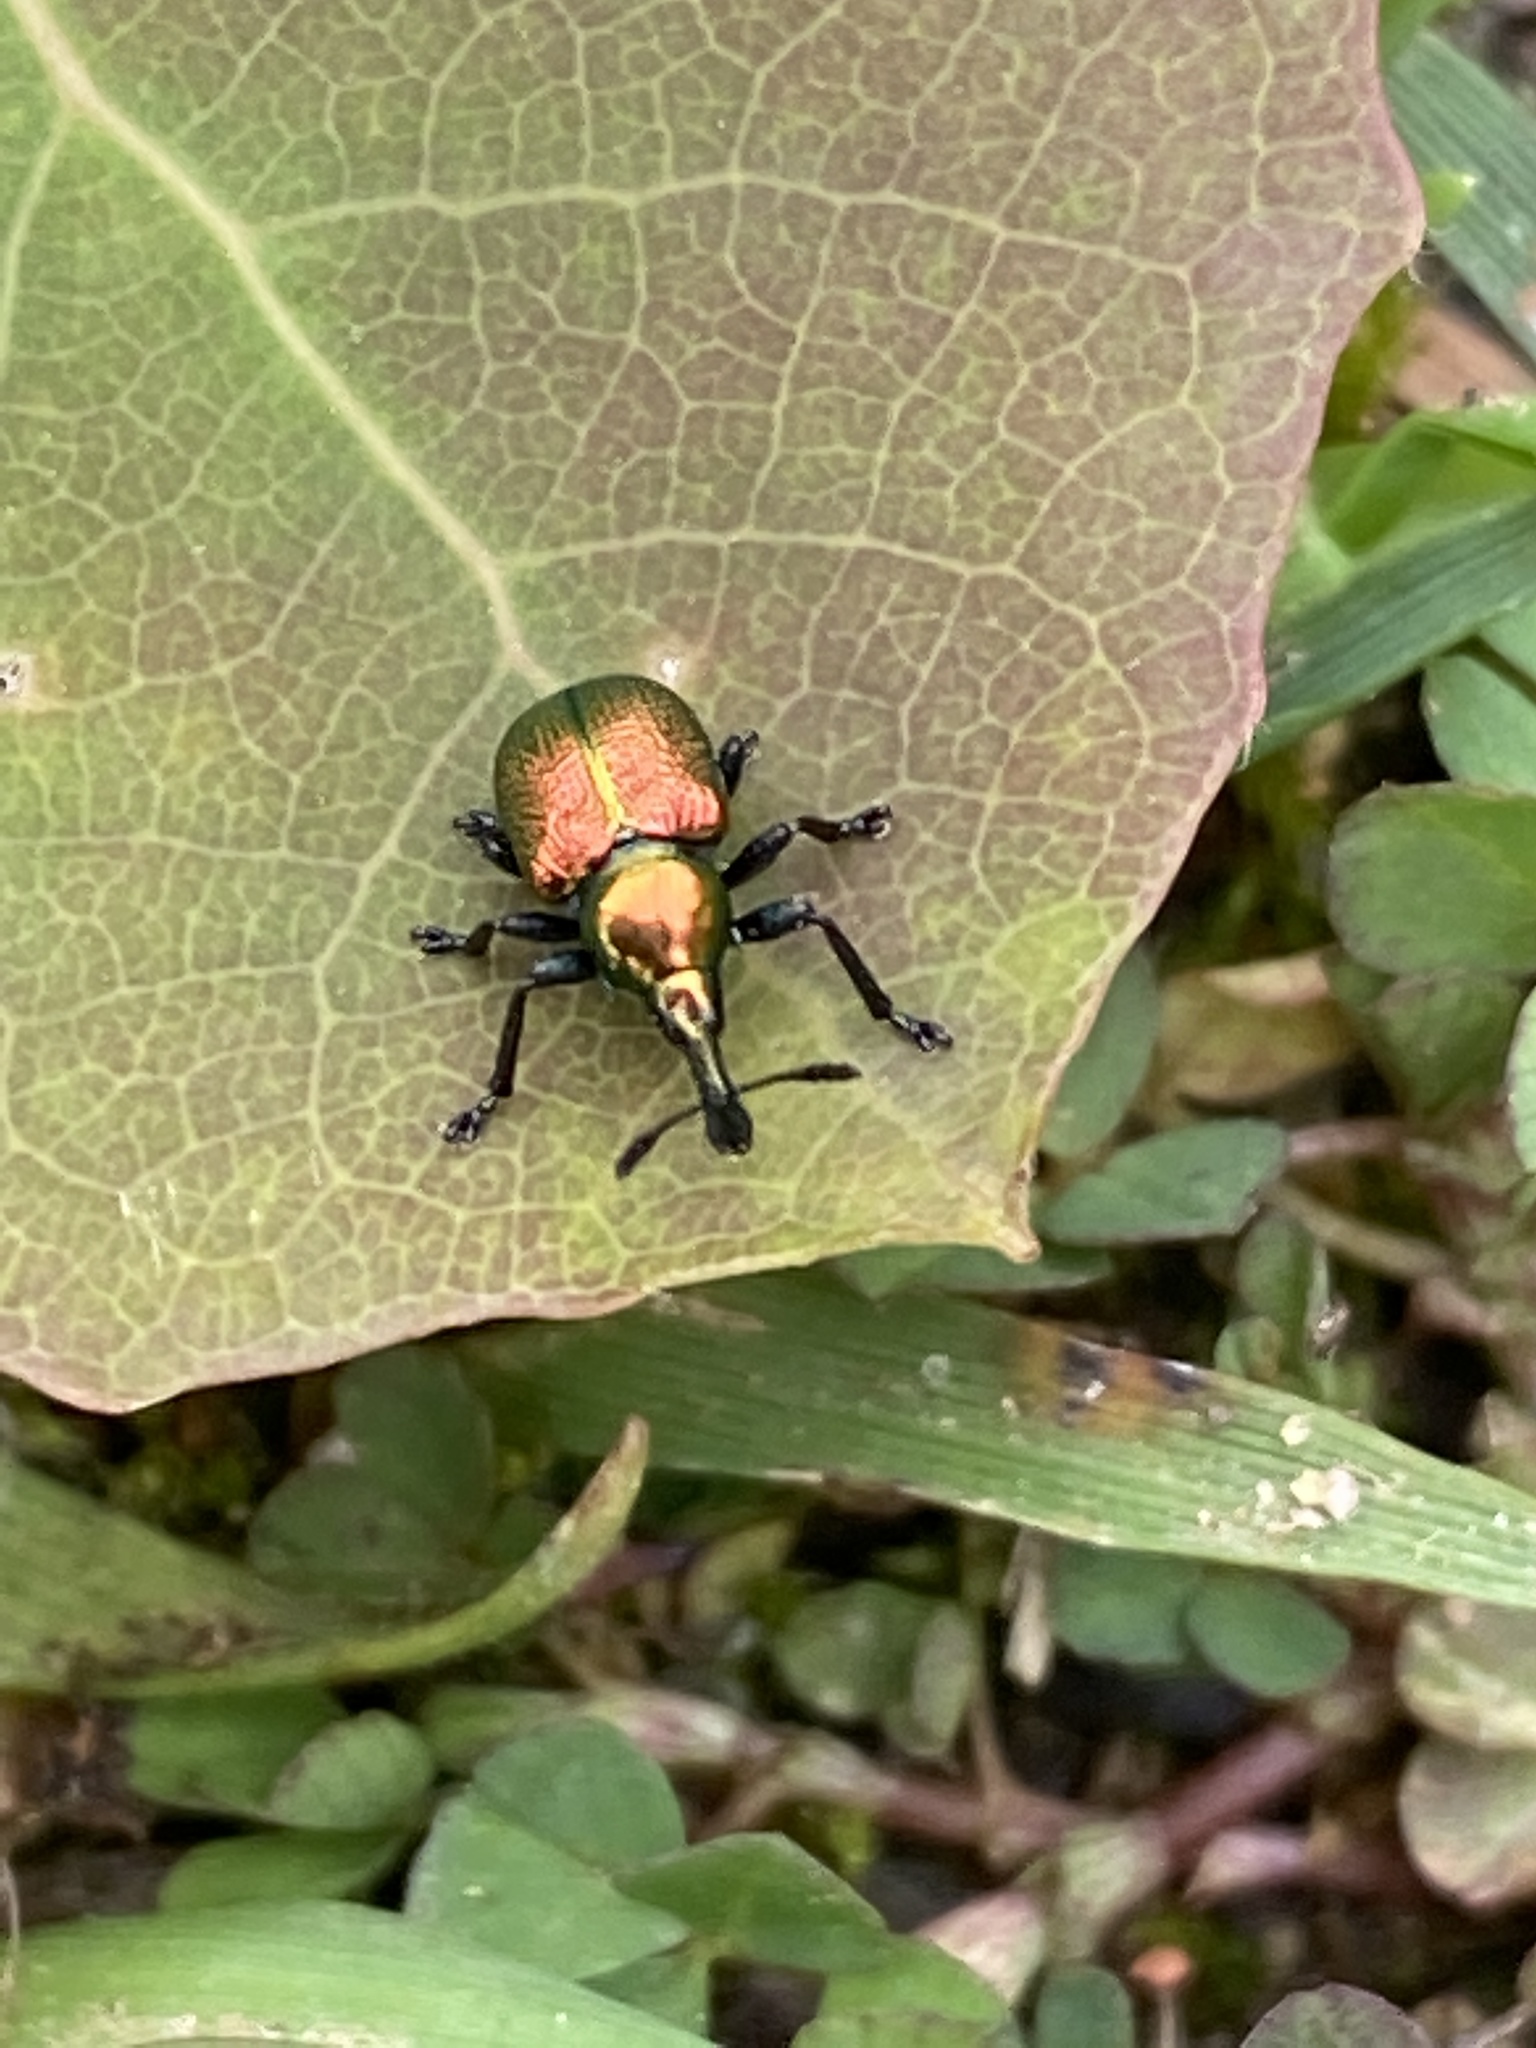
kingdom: Animalia
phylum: Arthropoda
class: Insecta
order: Coleoptera
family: Attelabidae
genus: Byctiscus
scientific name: Byctiscus populi
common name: Leaf-rolling weevil
